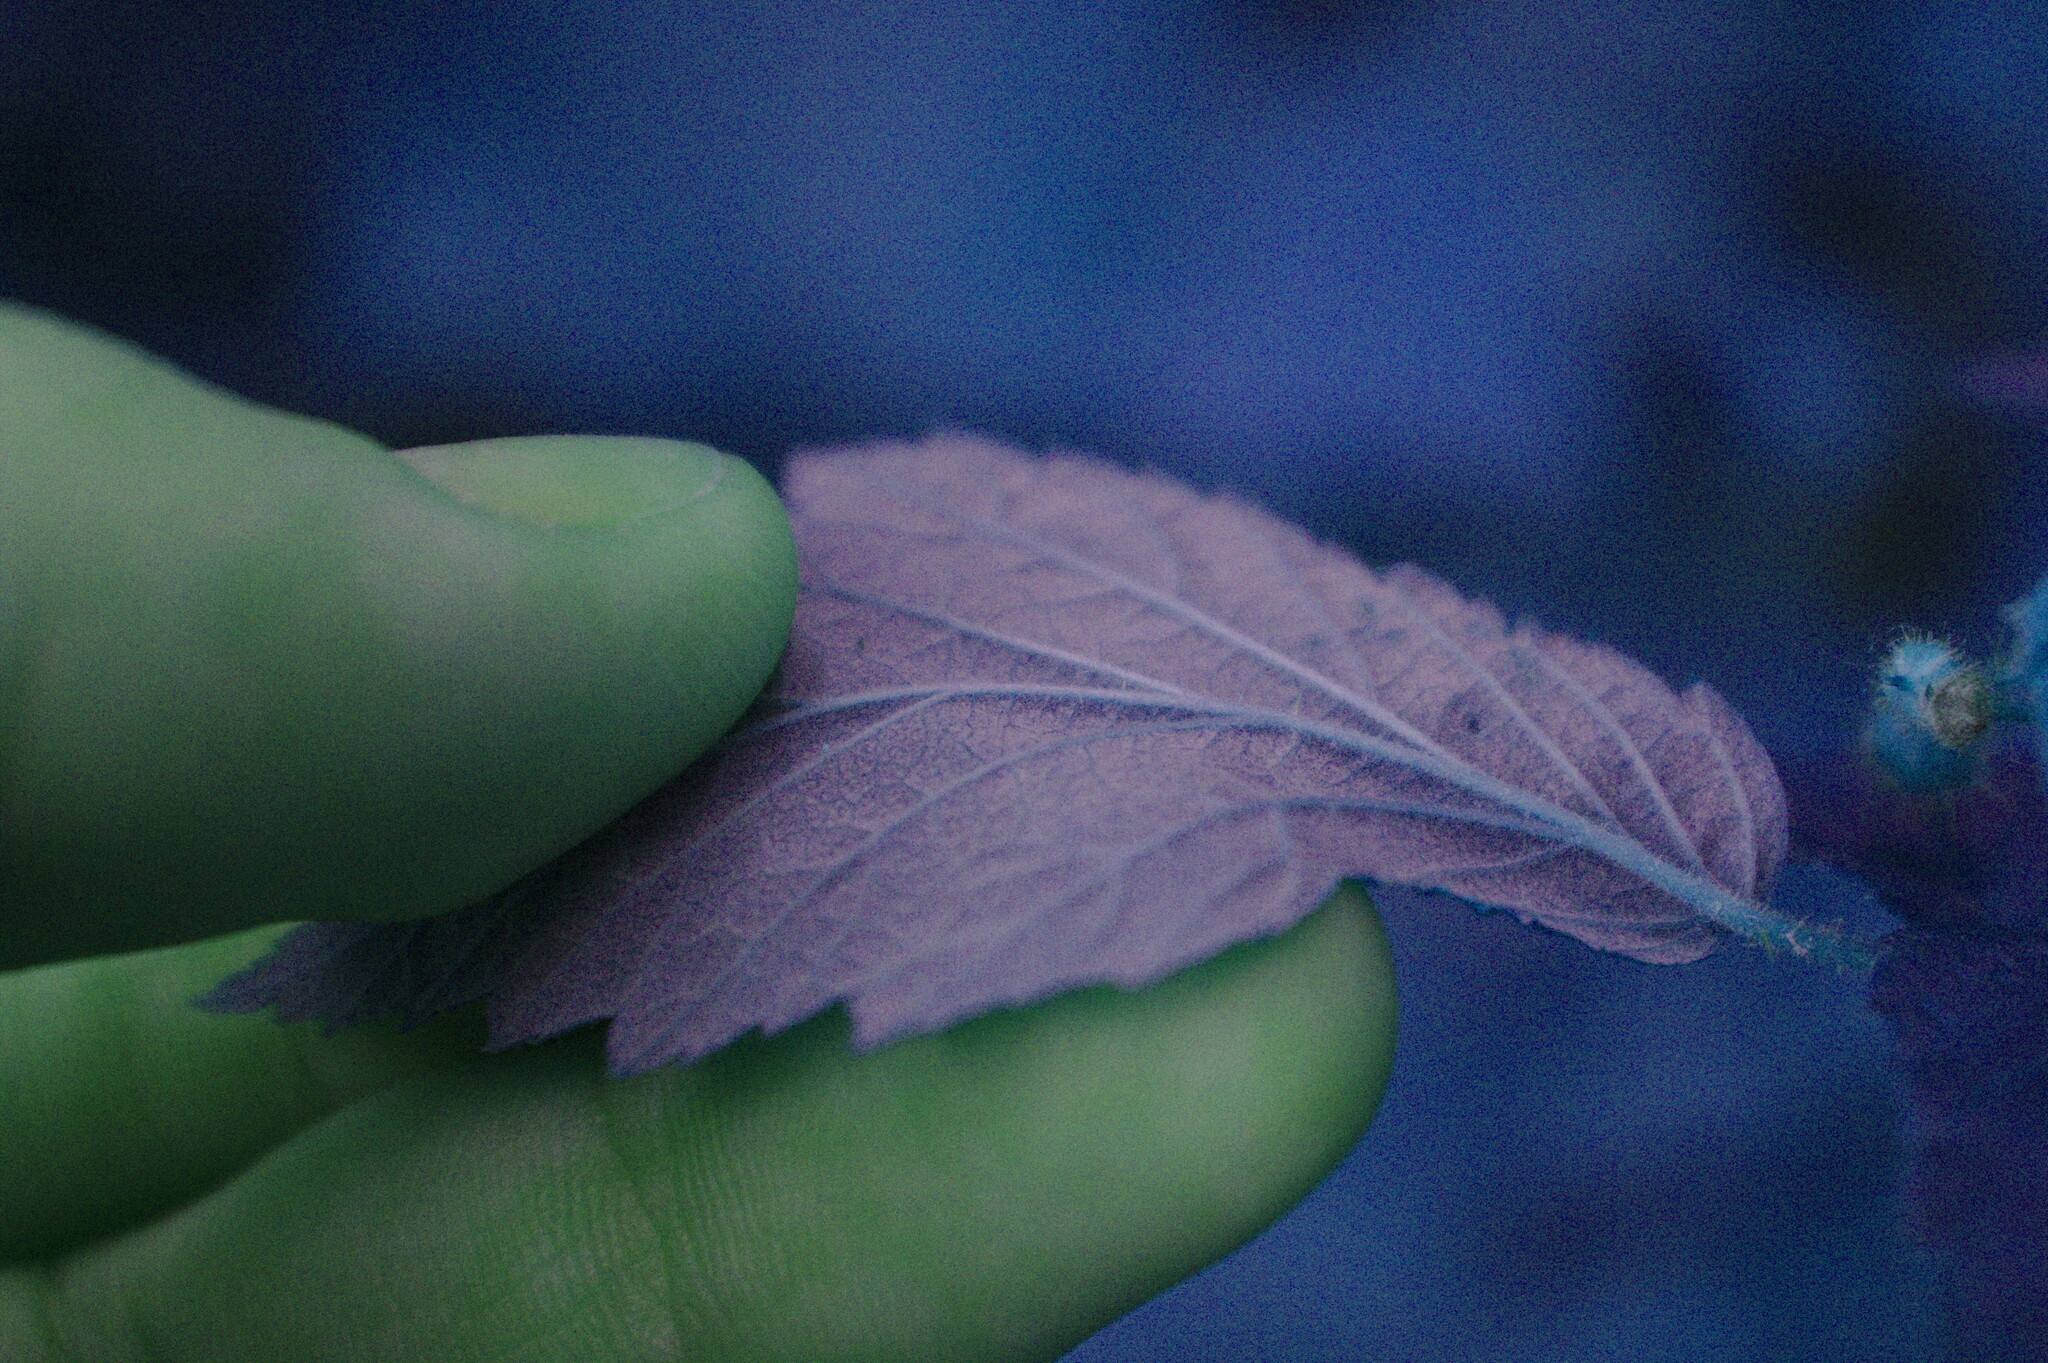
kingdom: Plantae
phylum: Tracheophyta
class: Magnoliopsida
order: Rosales
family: Rosaceae
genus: Rubus
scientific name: Rubus idaeus
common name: Raspberry
